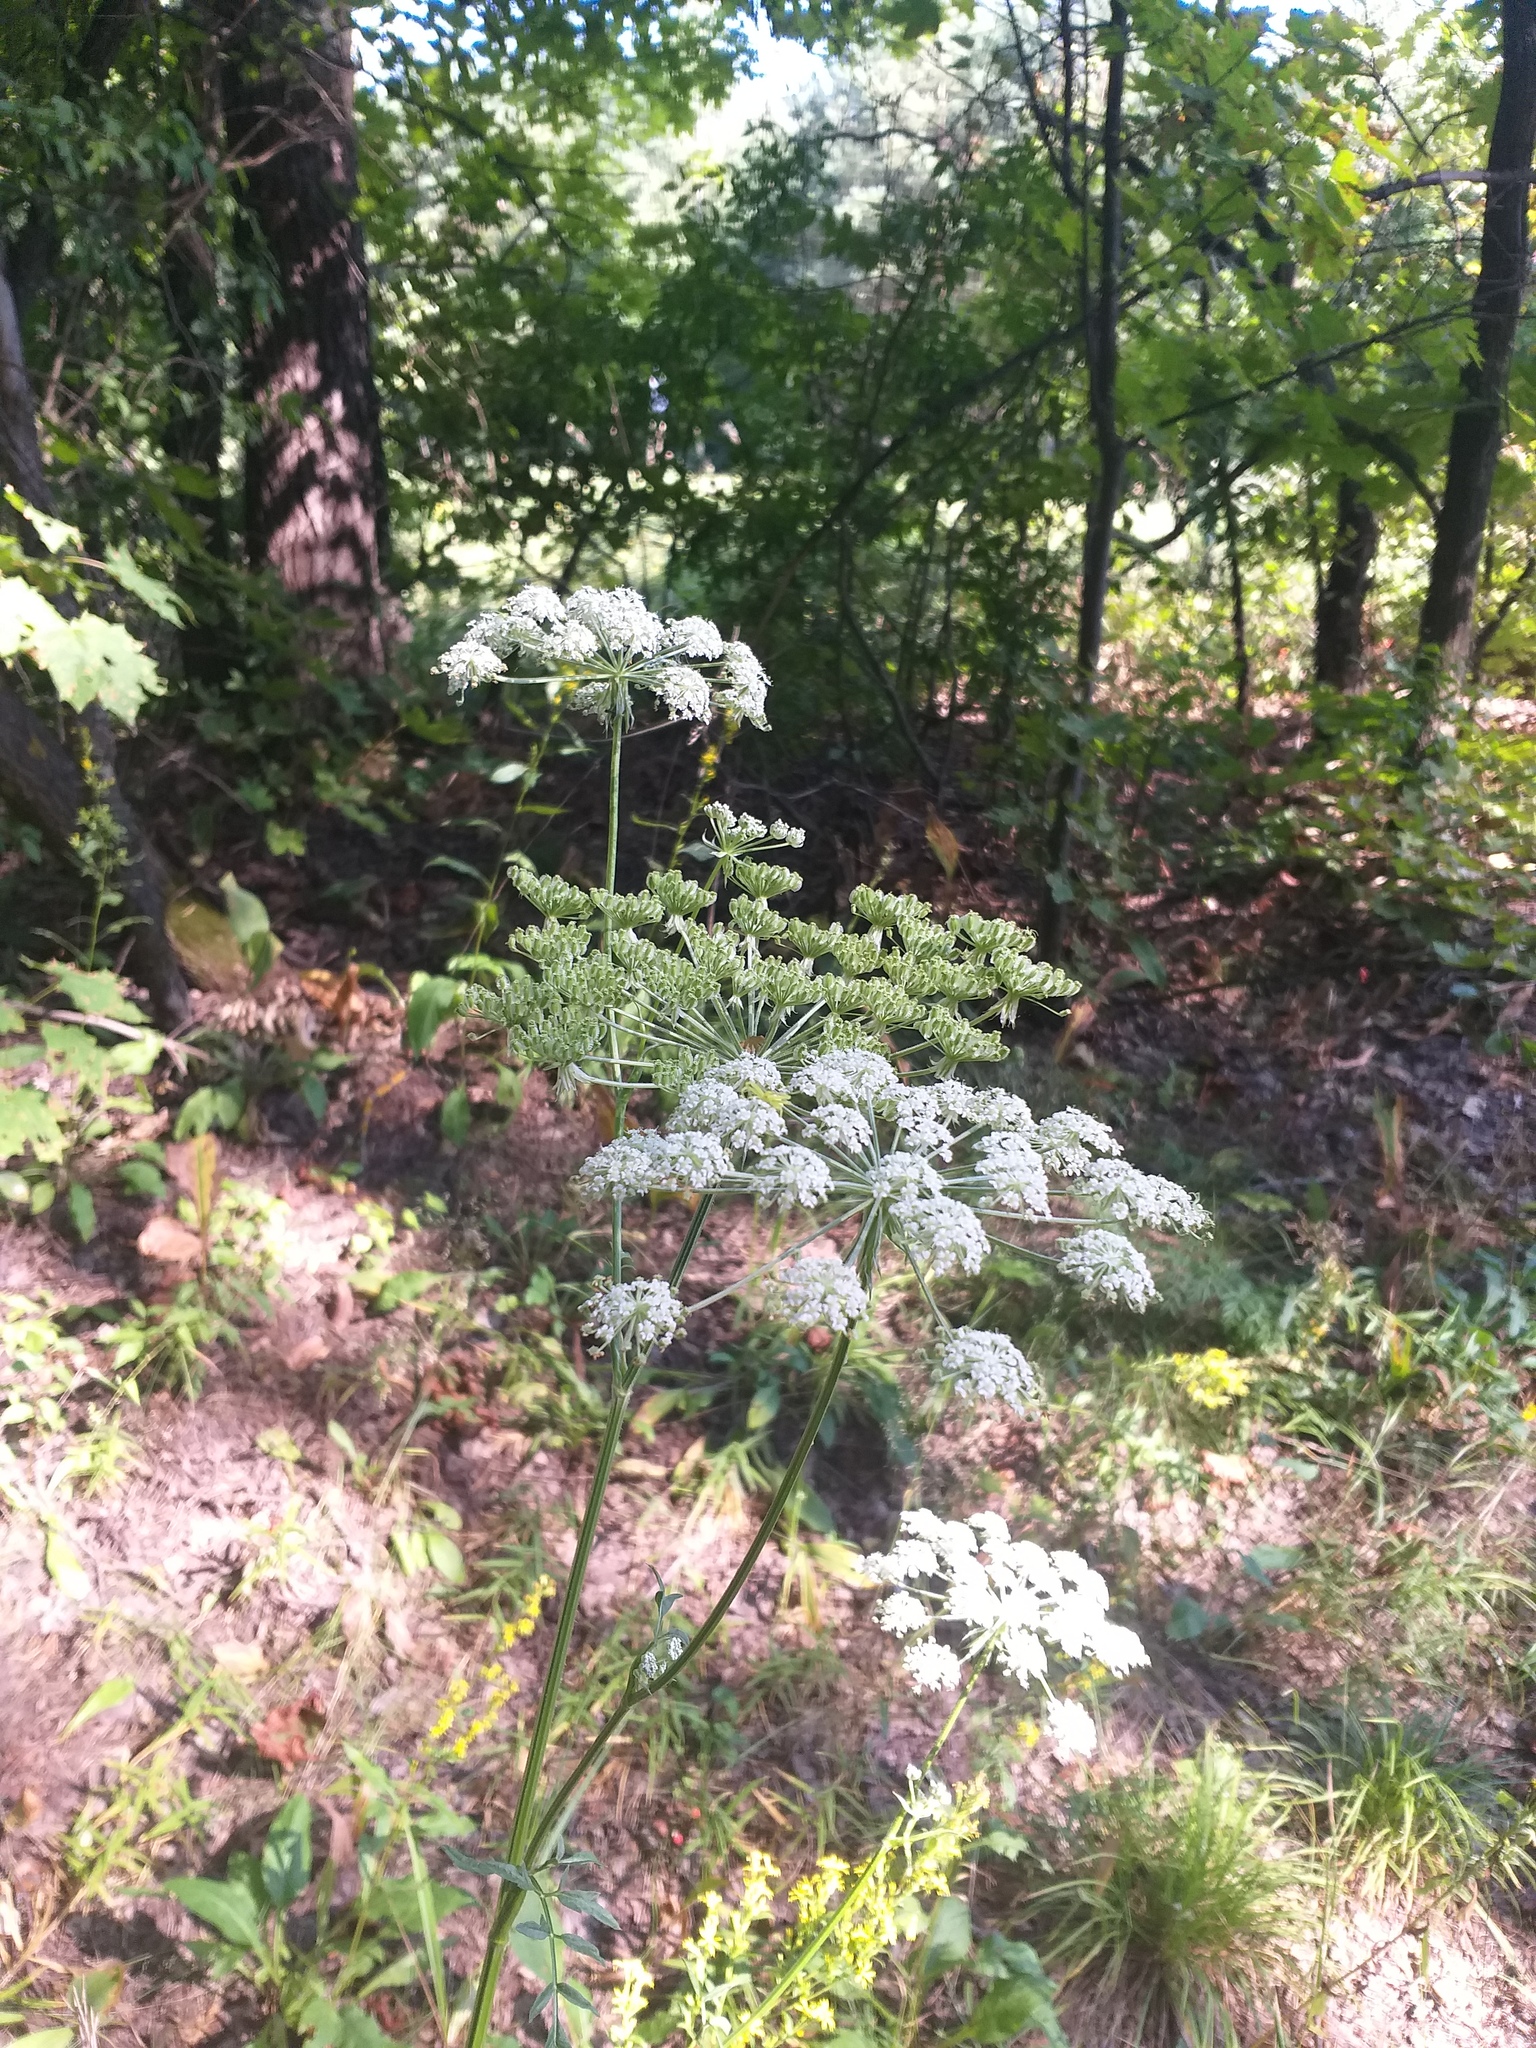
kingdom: Plantae
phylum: Tracheophyta
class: Magnoliopsida
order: Apiales
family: Apiaceae
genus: Silphiodaucus
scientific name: Silphiodaucus prutenicus
